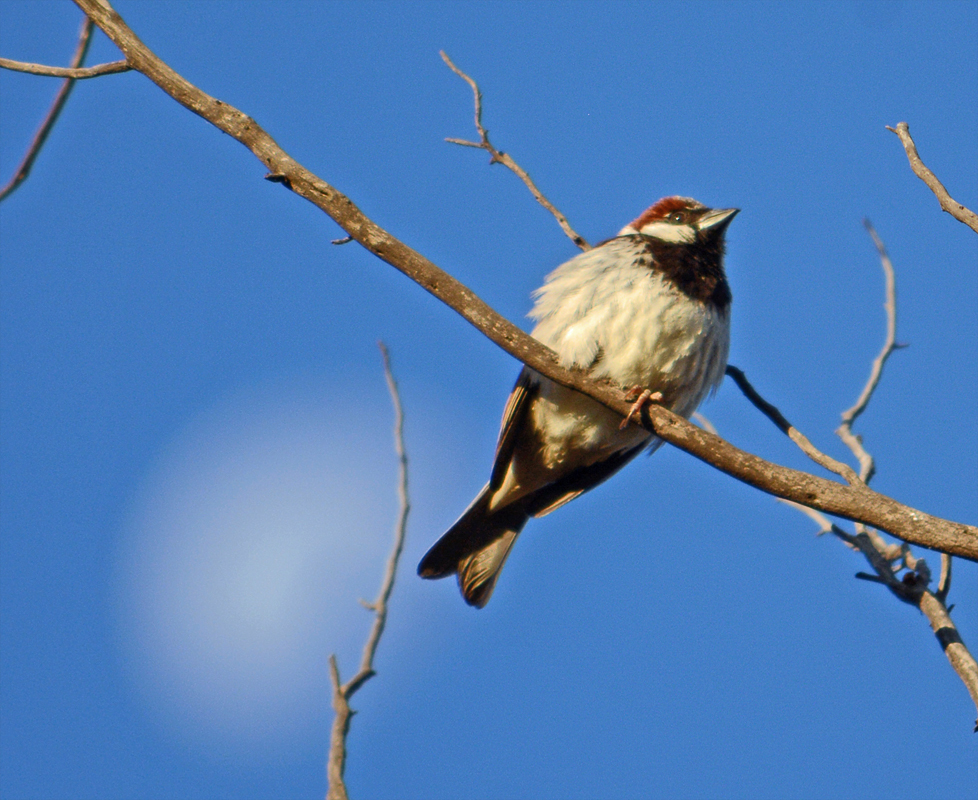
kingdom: Animalia
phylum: Chordata
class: Aves
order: Passeriformes
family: Passeridae
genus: Passer
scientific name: Passer domesticus
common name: House sparrow
